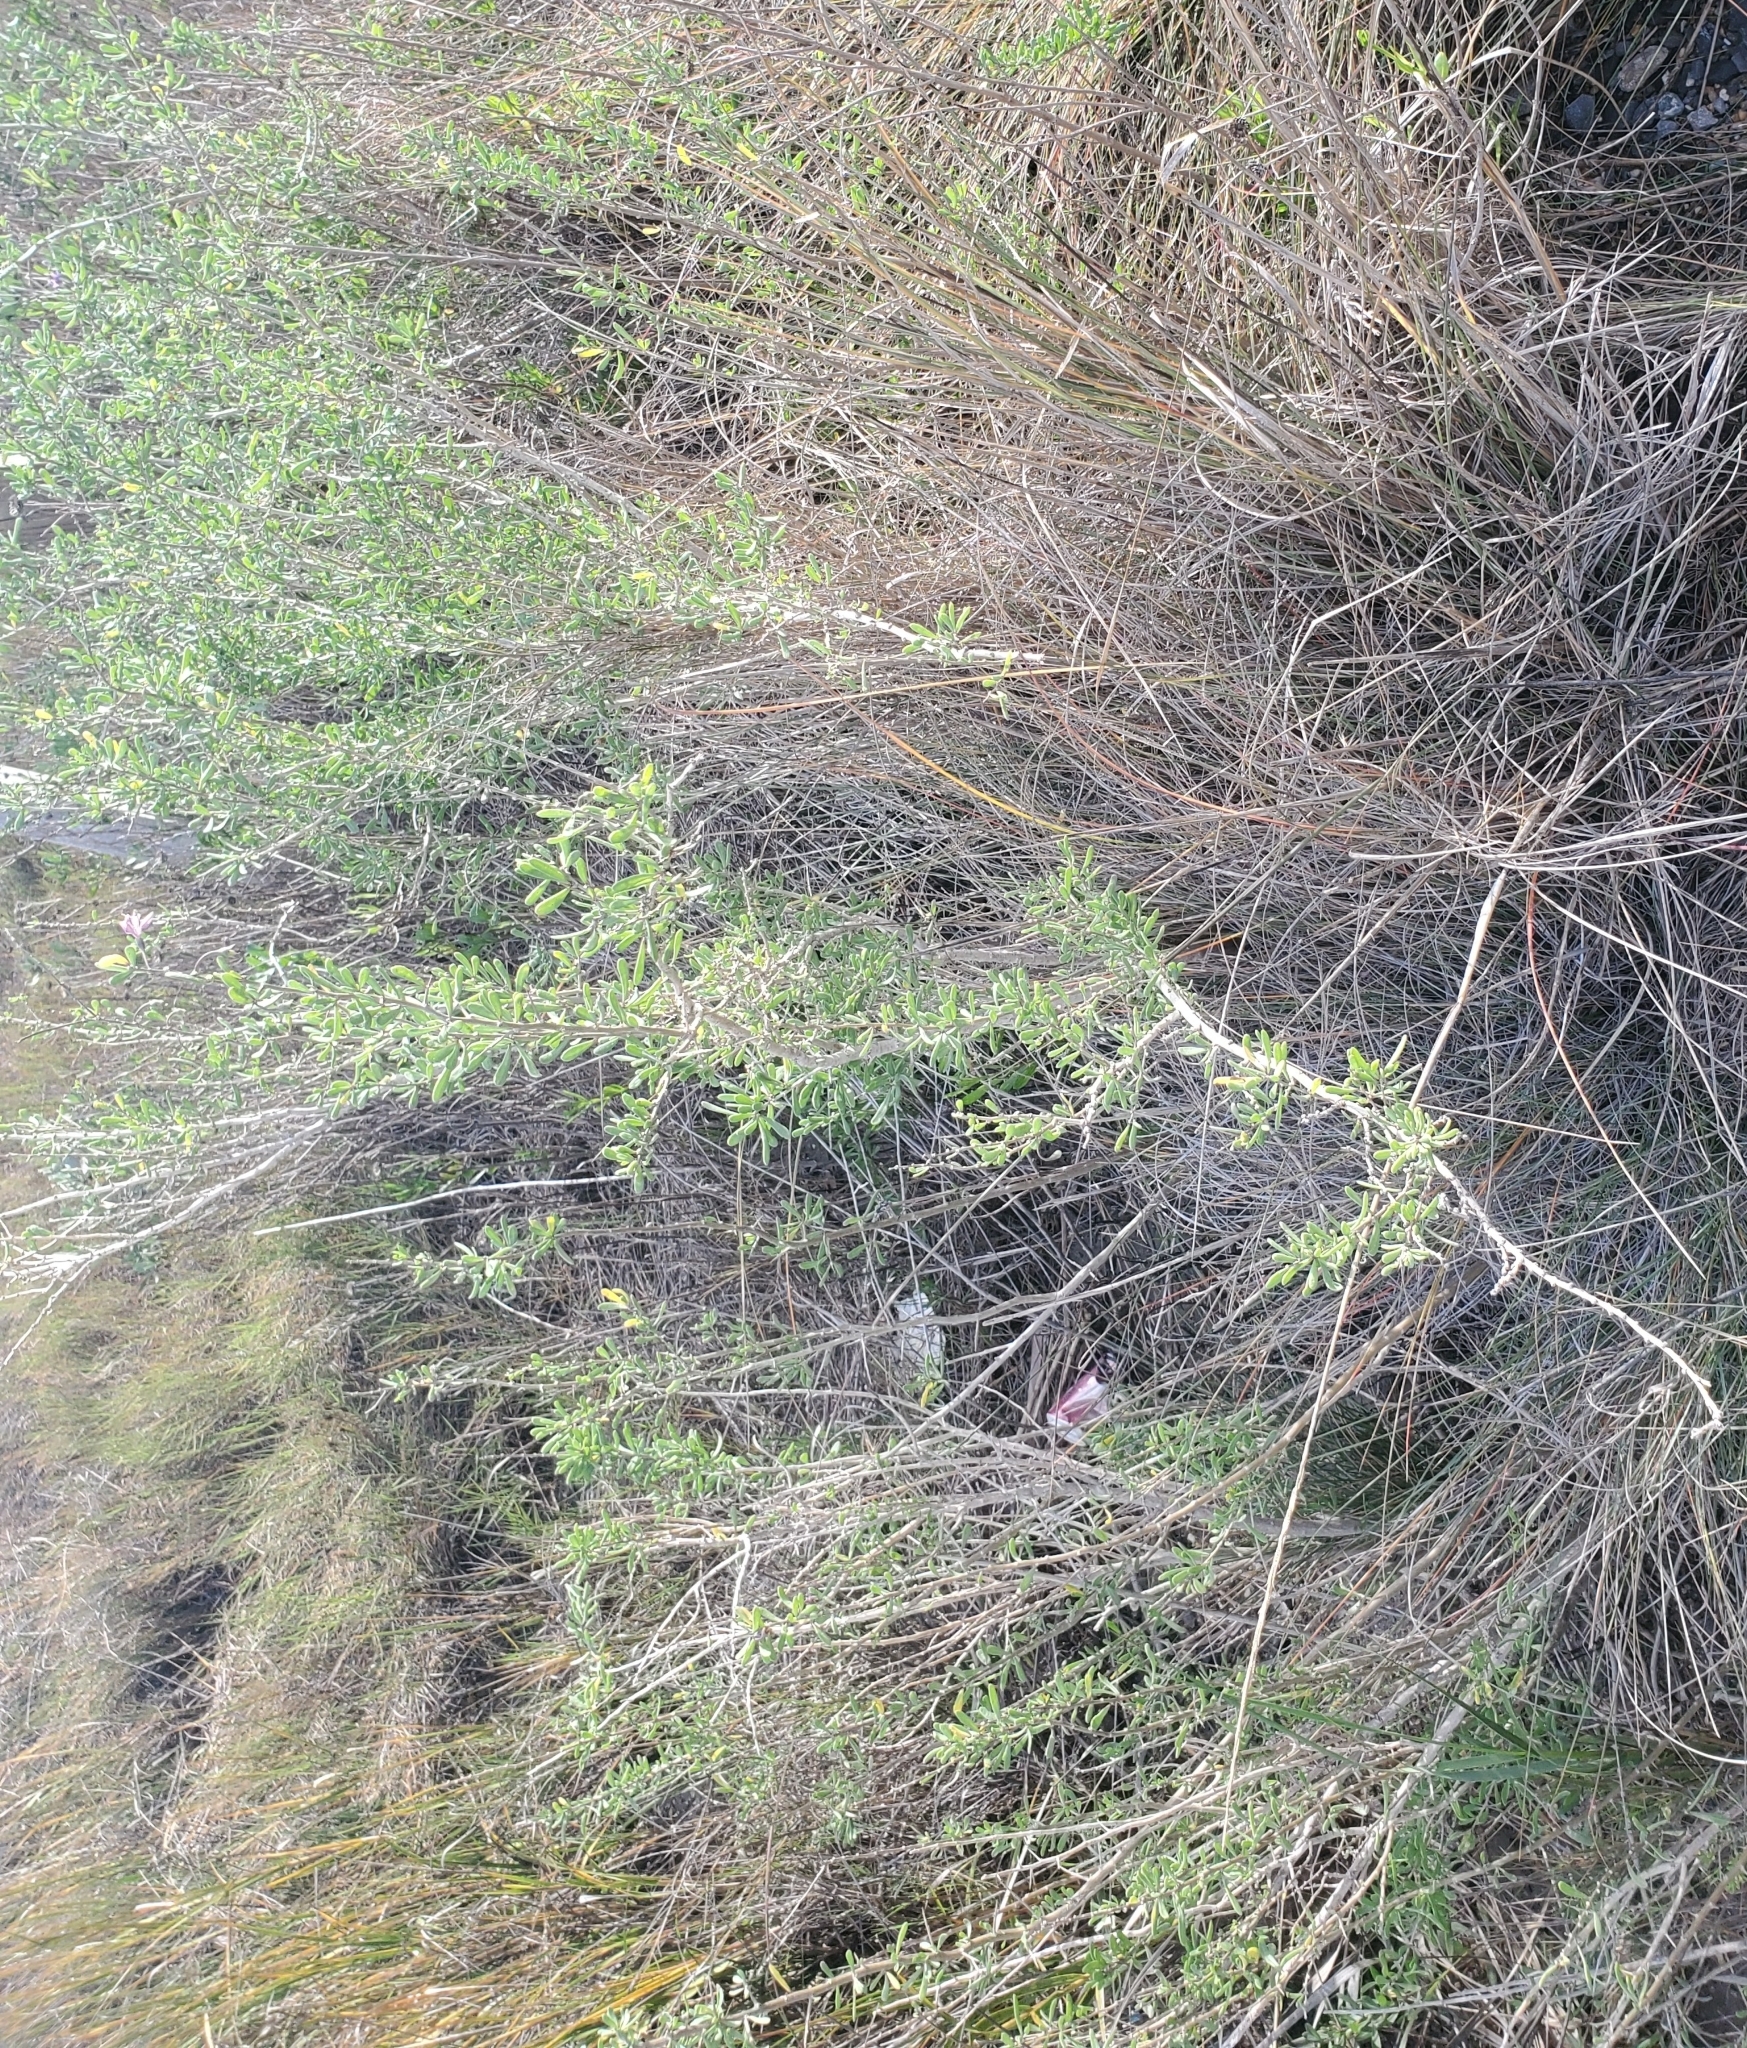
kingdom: Plantae
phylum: Tracheophyta
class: Magnoliopsida
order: Solanales
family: Solanaceae
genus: Lycium
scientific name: Lycium carolinianum
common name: Christmasberry
